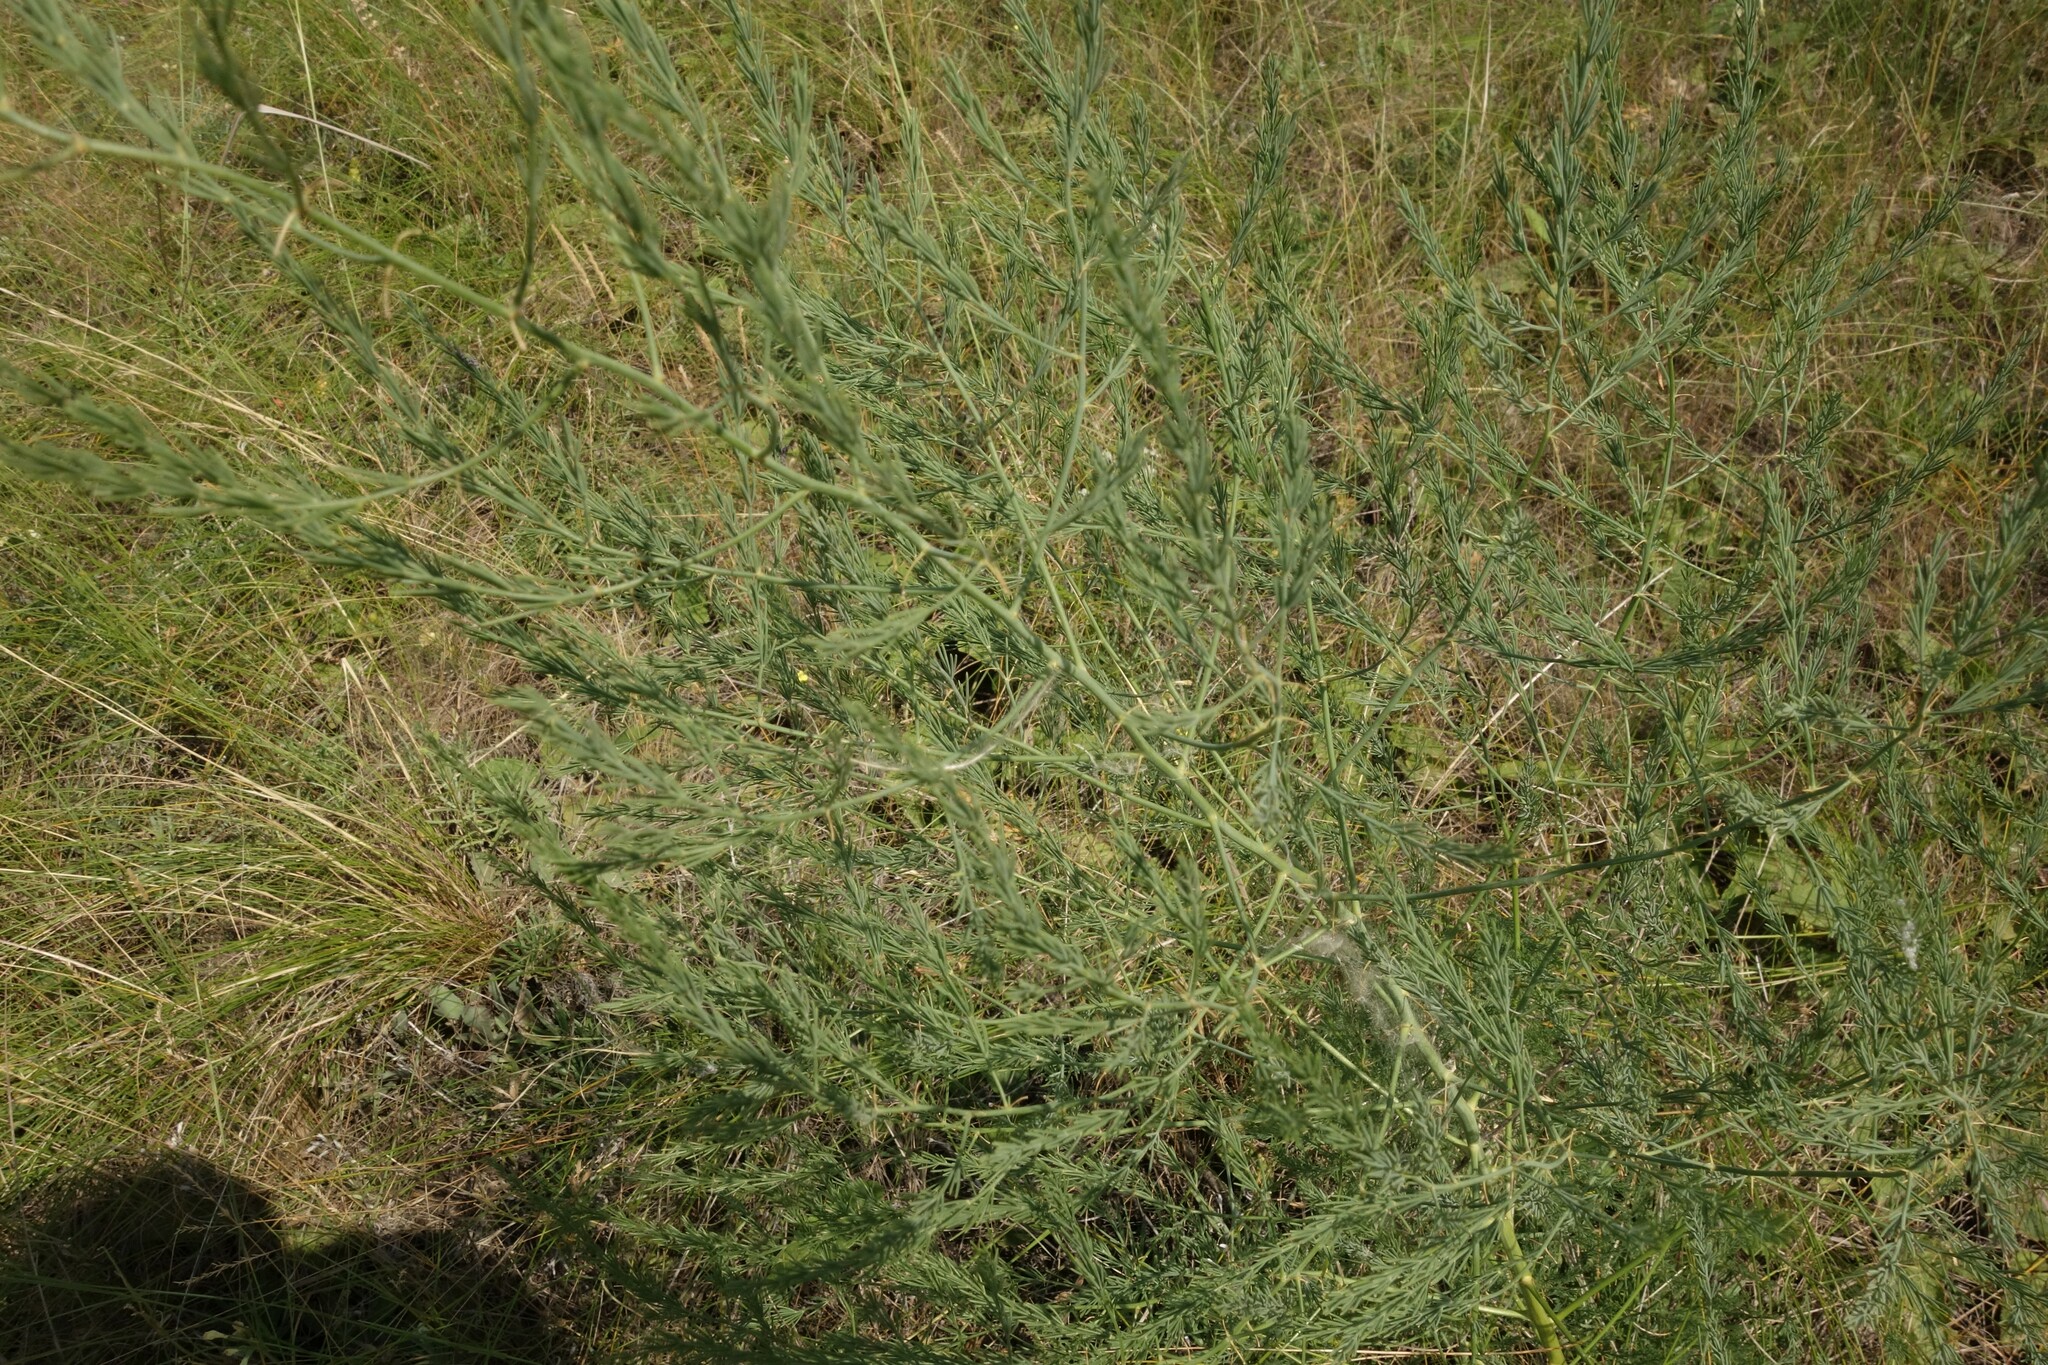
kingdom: Plantae
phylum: Tracheophyta
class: Liliopsida
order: Asparagales
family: Asparagaceae
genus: Asparagus
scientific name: Asparagus officinalis
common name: Garden asparagus
